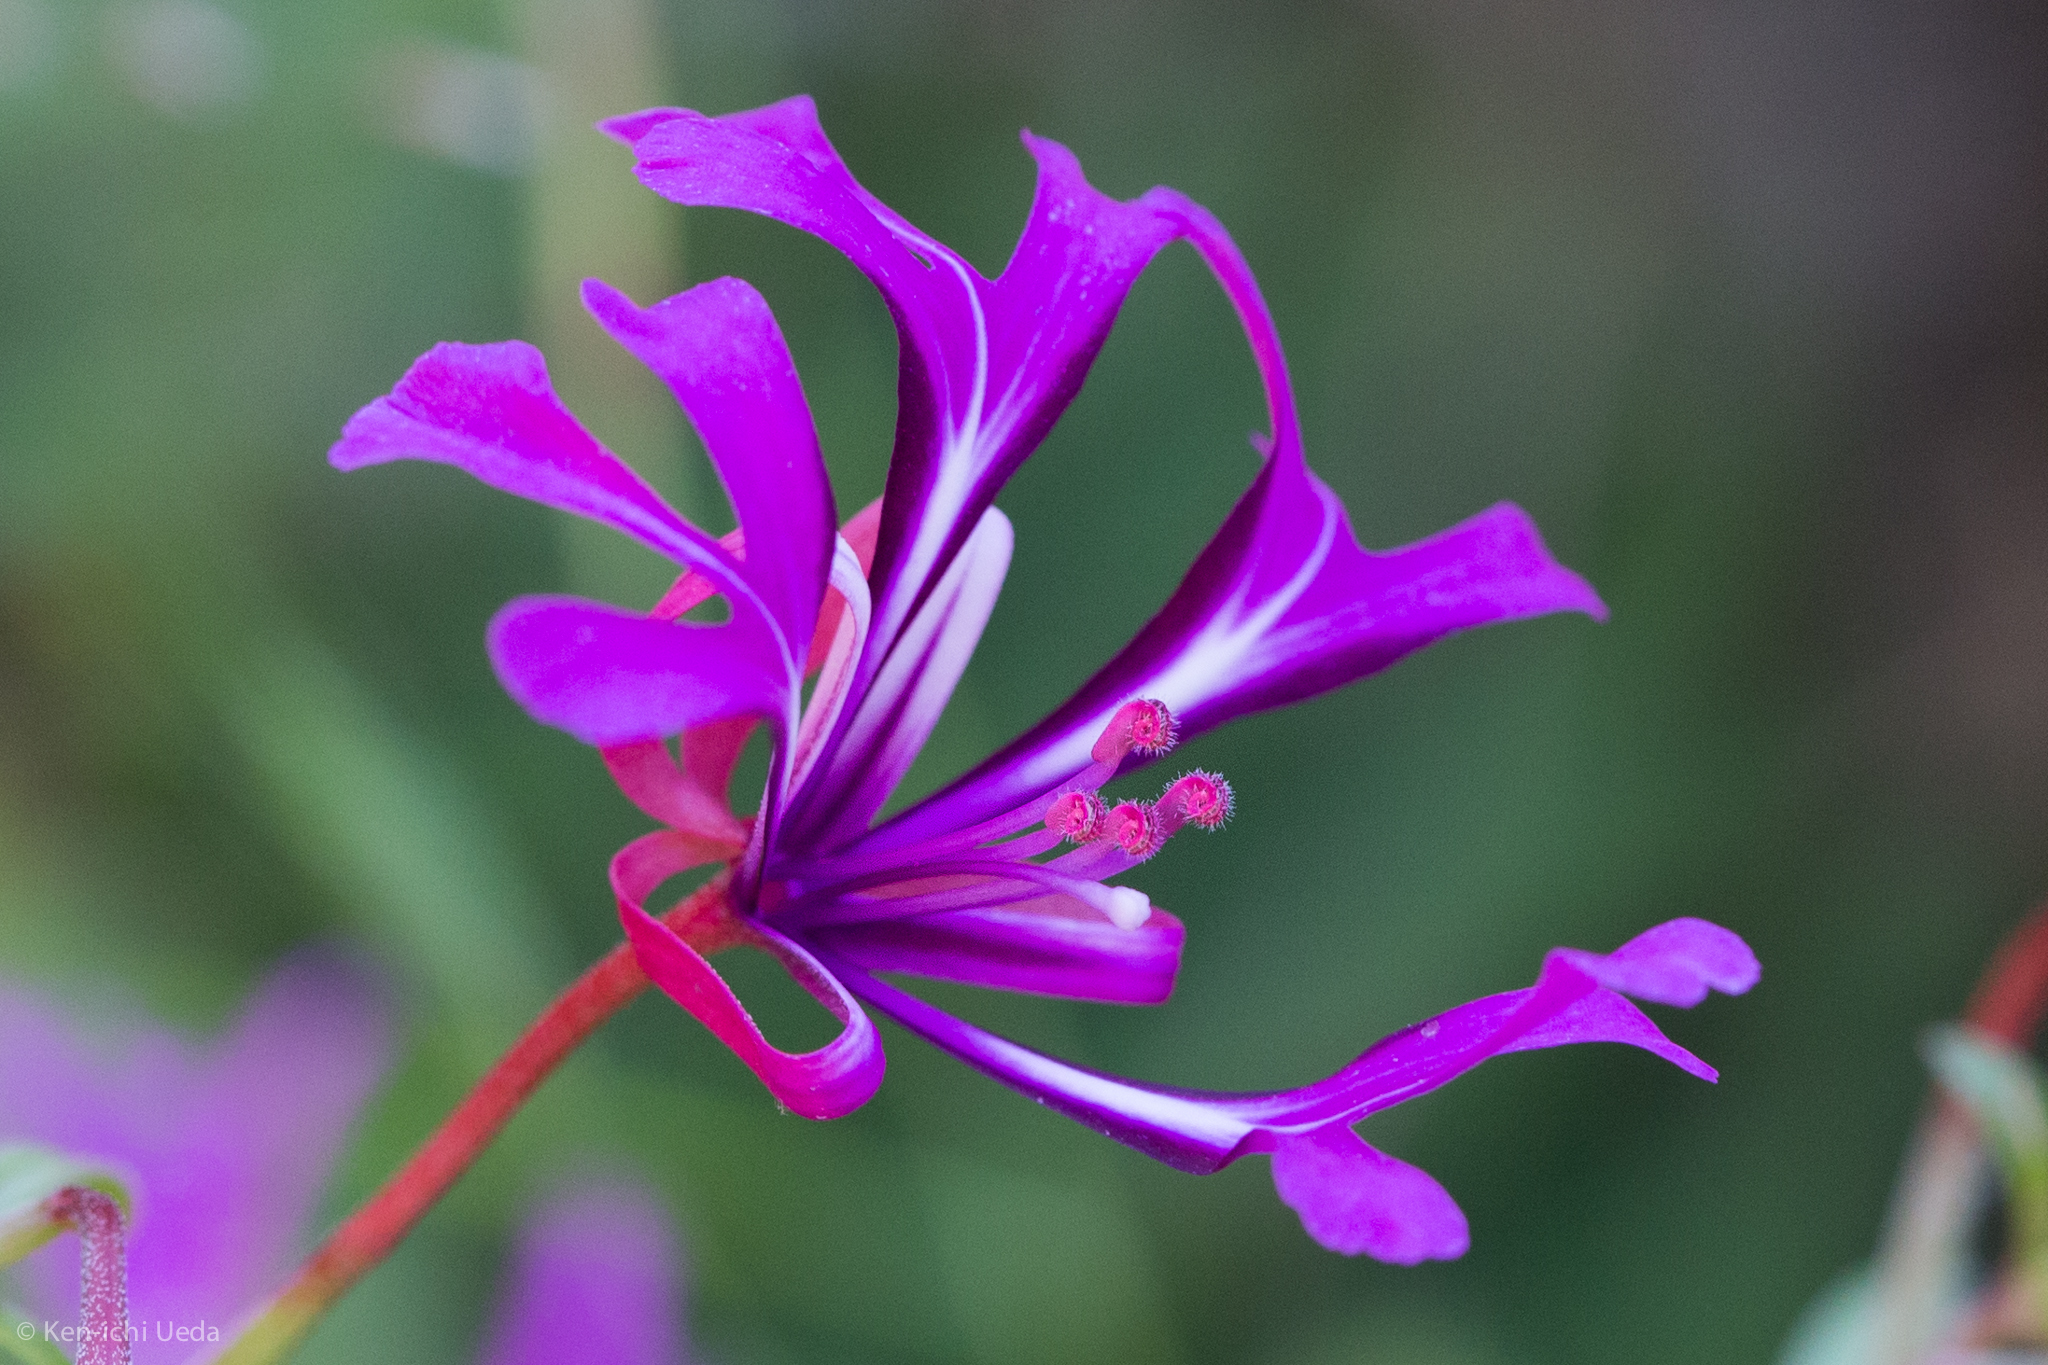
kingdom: Plantae
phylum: Tracheophyta
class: Magnoliopsida
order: Myrtales
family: Onagraceae
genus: Clarkia
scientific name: Clarkia concinna
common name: Red-ribbons
